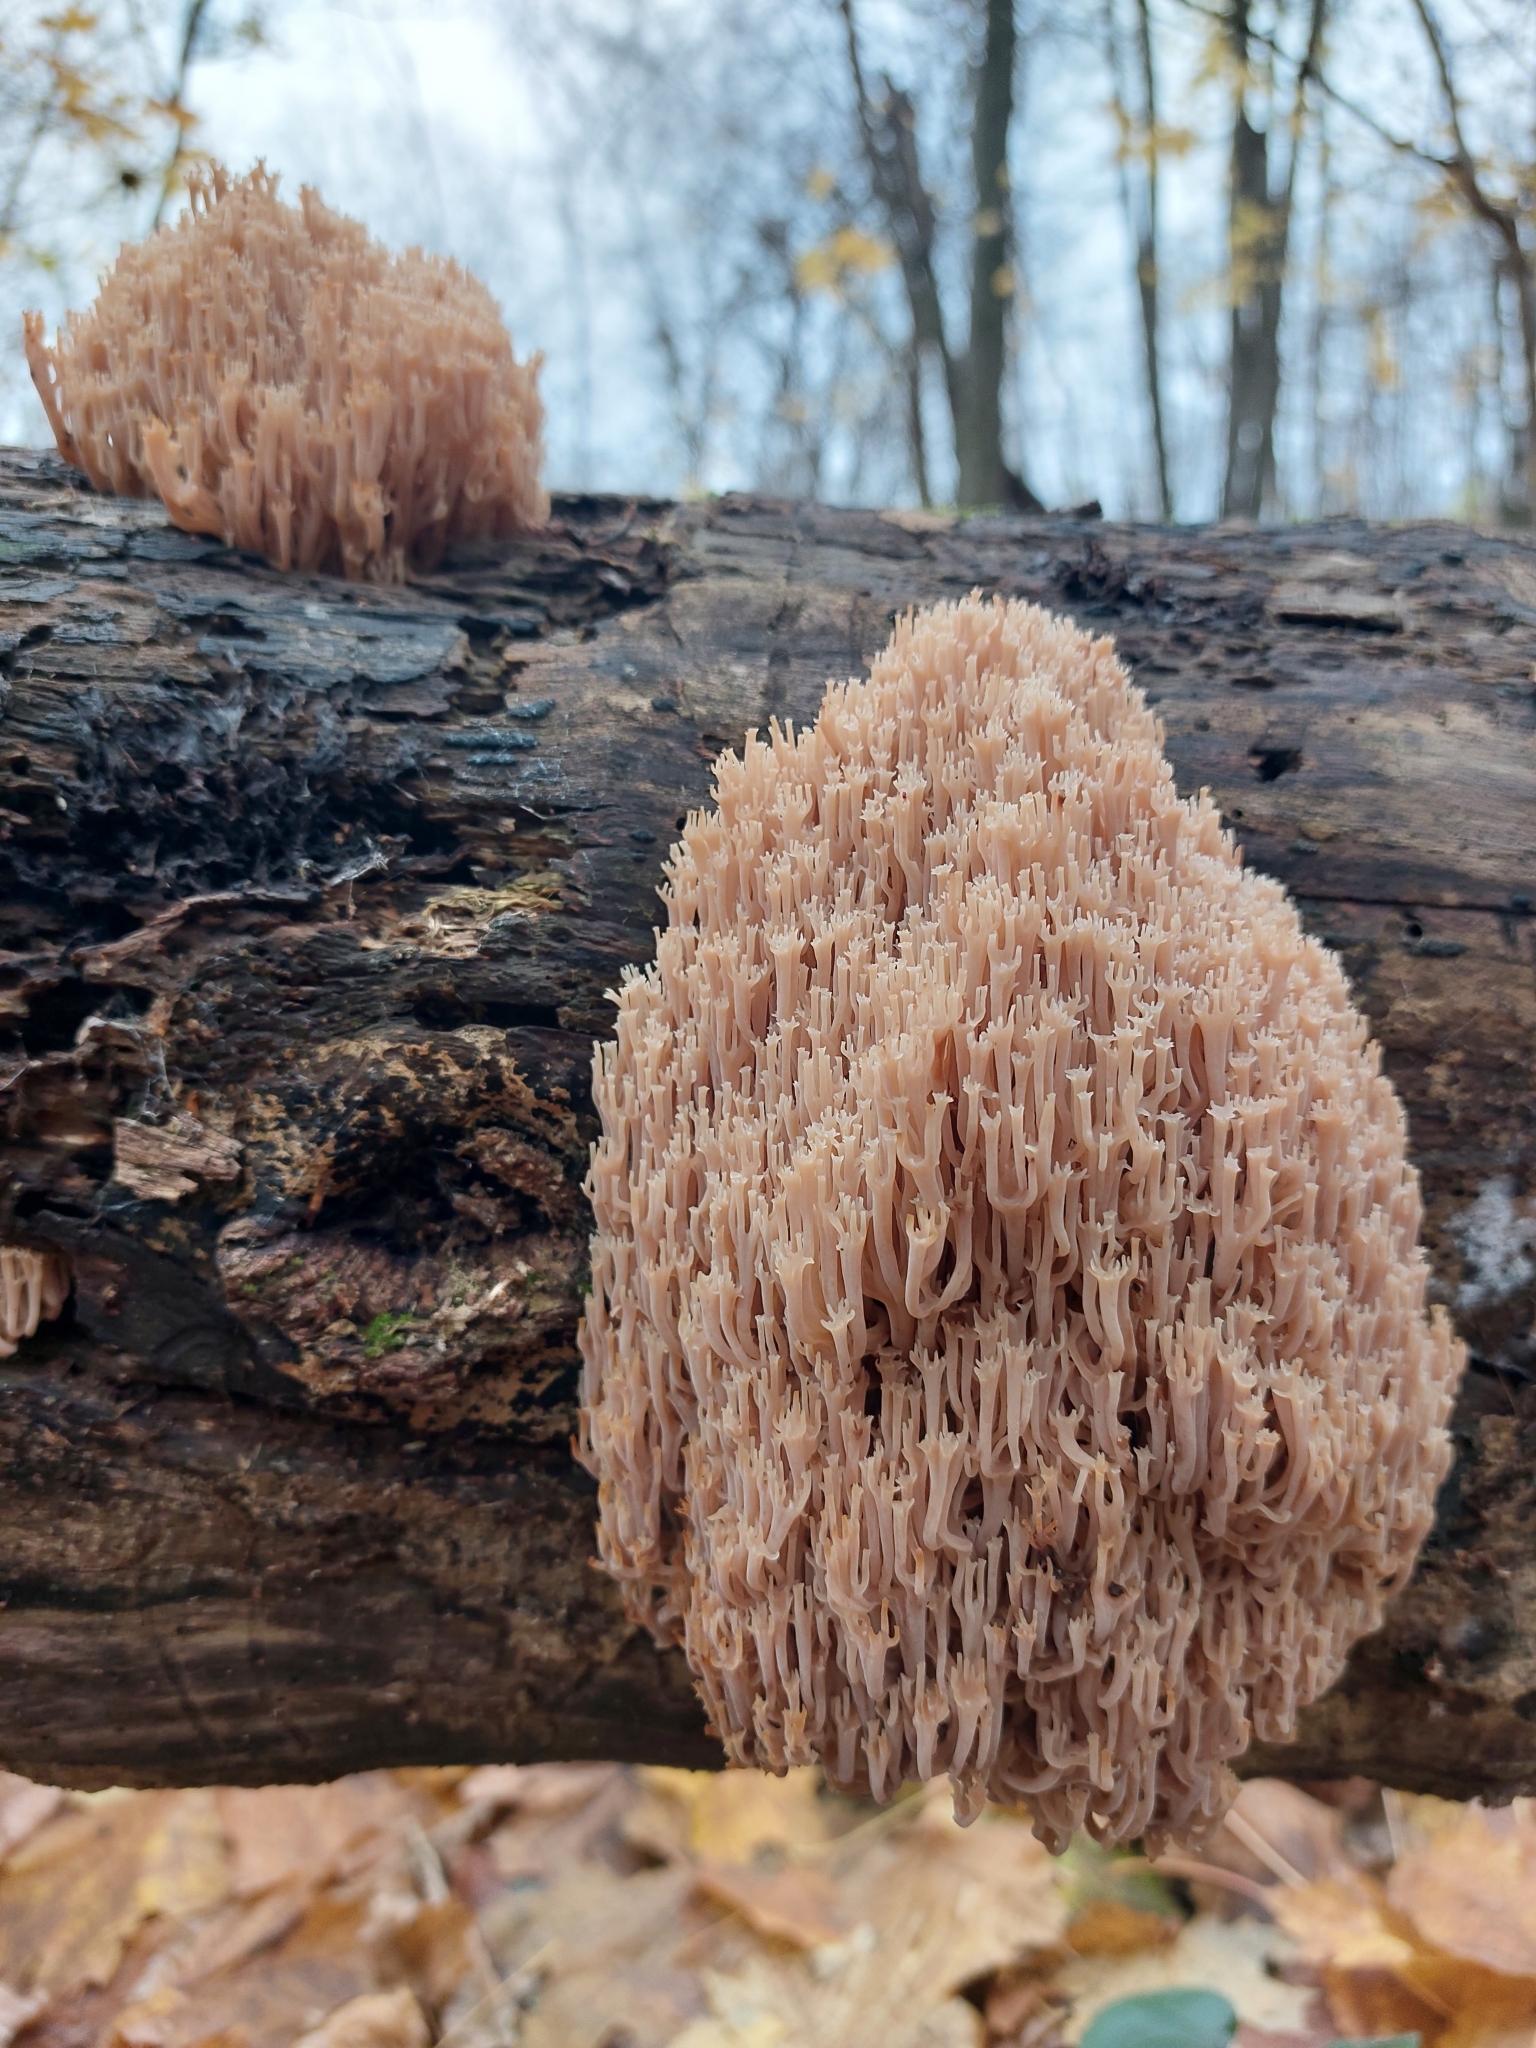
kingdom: Fungi
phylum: Basidiomycota
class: Agaricomycetes
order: Russulales
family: Auriscalpiaceae
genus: Artomyces
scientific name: Artomyces pyxidatus
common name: Crown-tipped coral fungus
